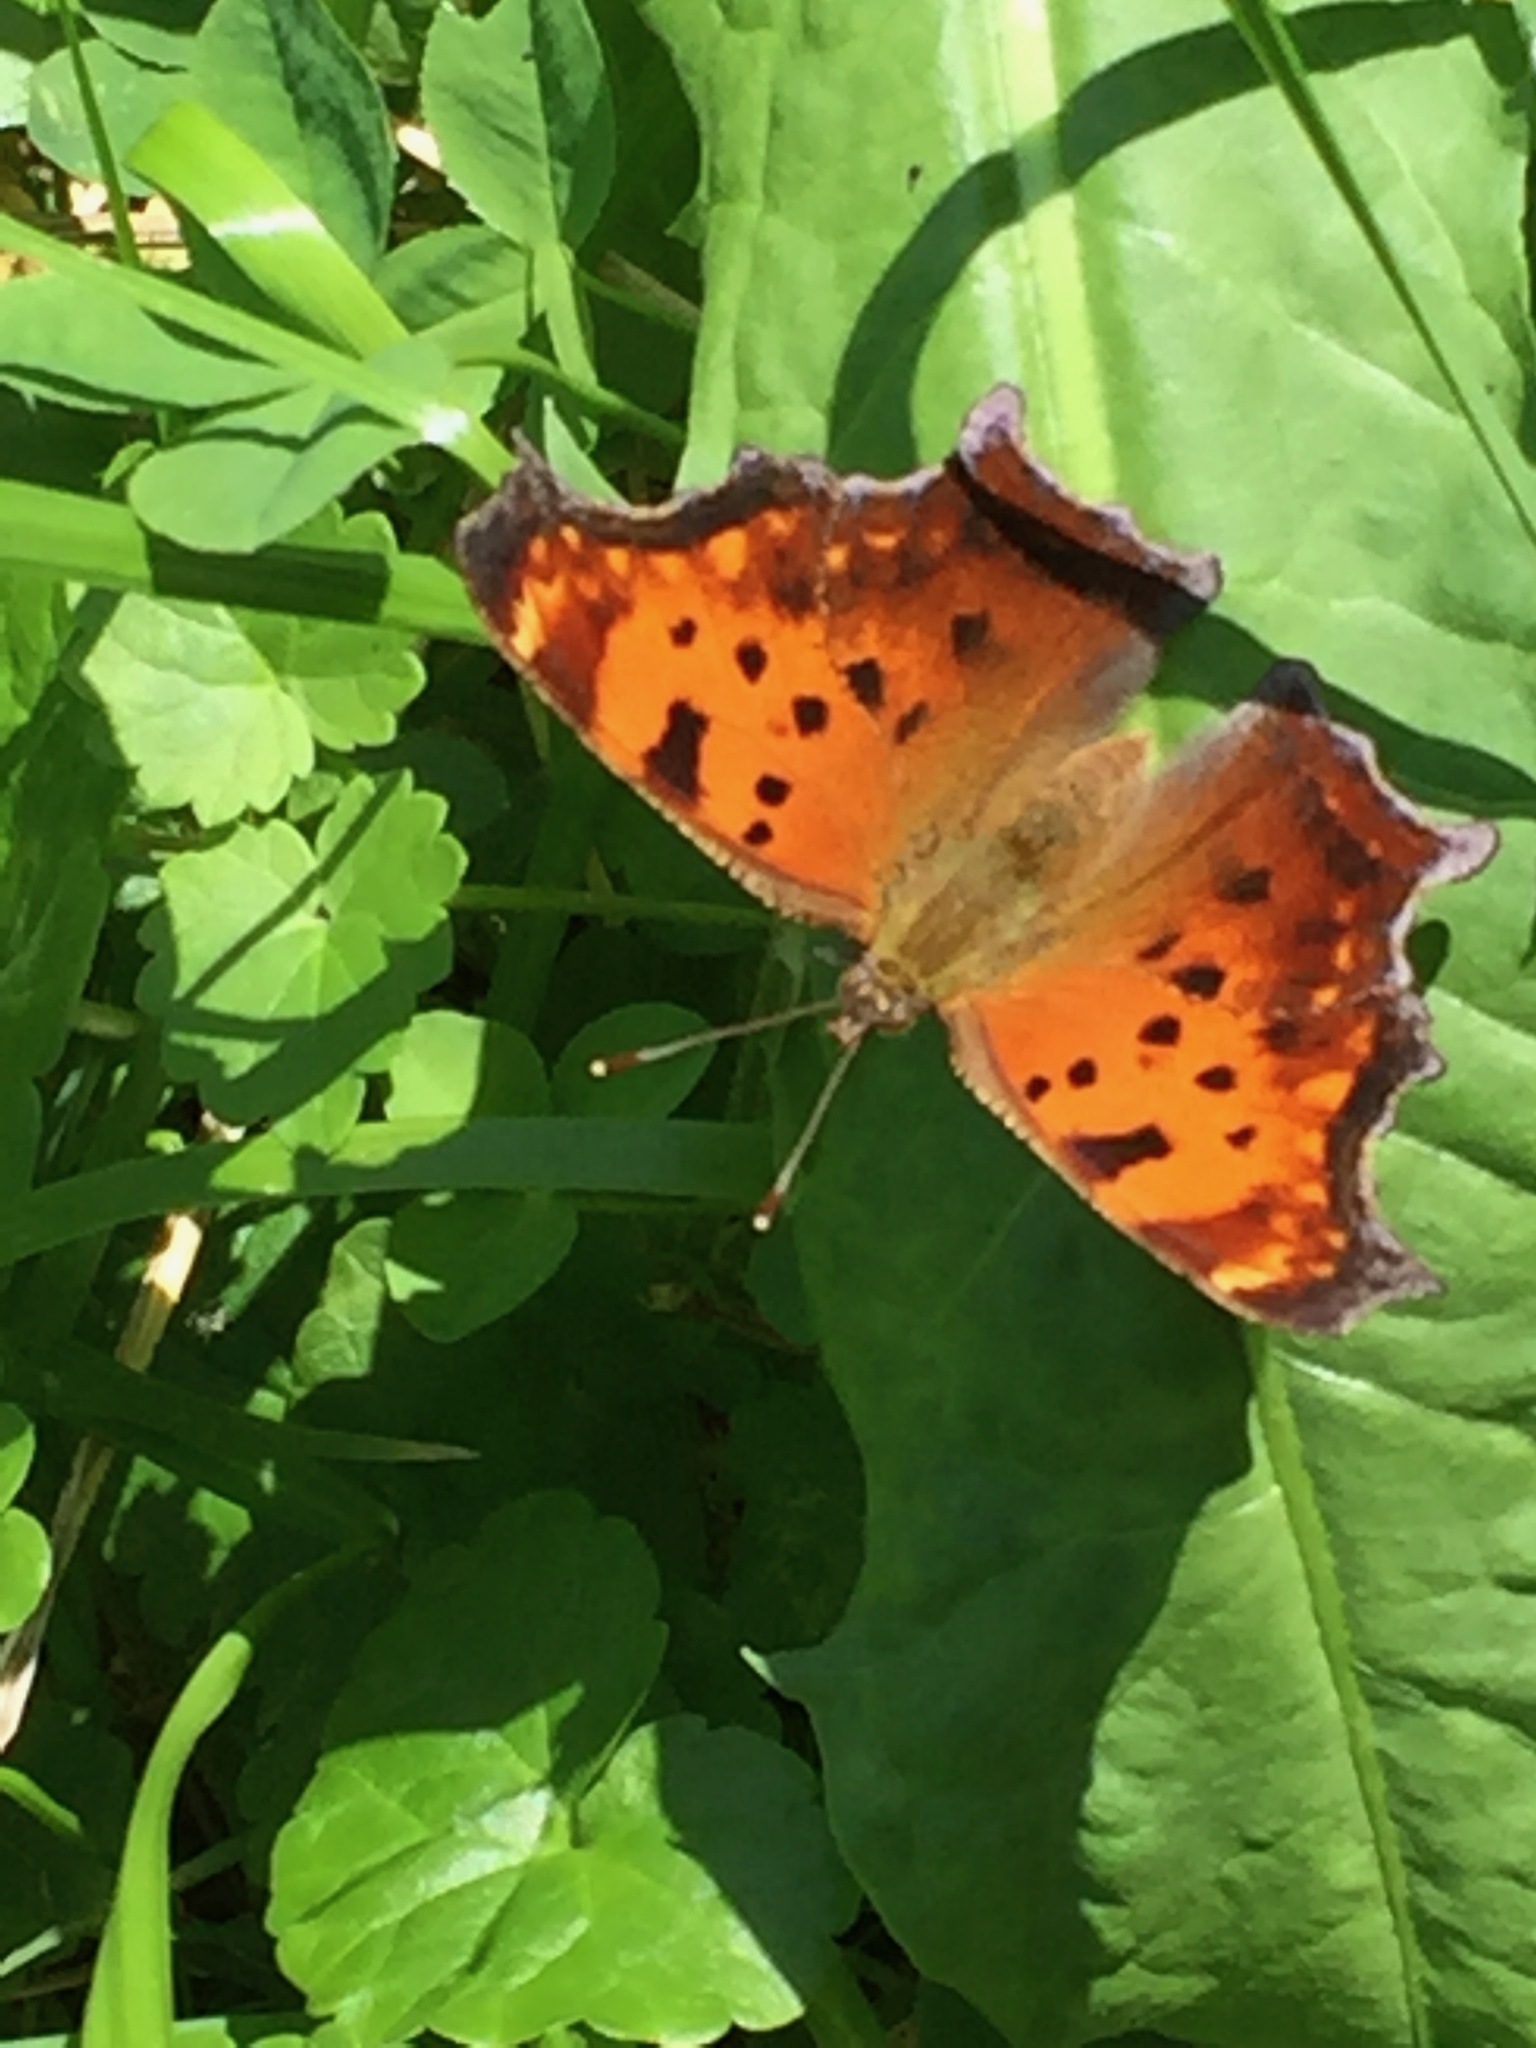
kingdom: Animalia
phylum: Arthropoda
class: Insecta
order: Lepidoptera
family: Nymphalidae
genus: Polygonia
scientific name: Polygonia comma
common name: Eastern comma
